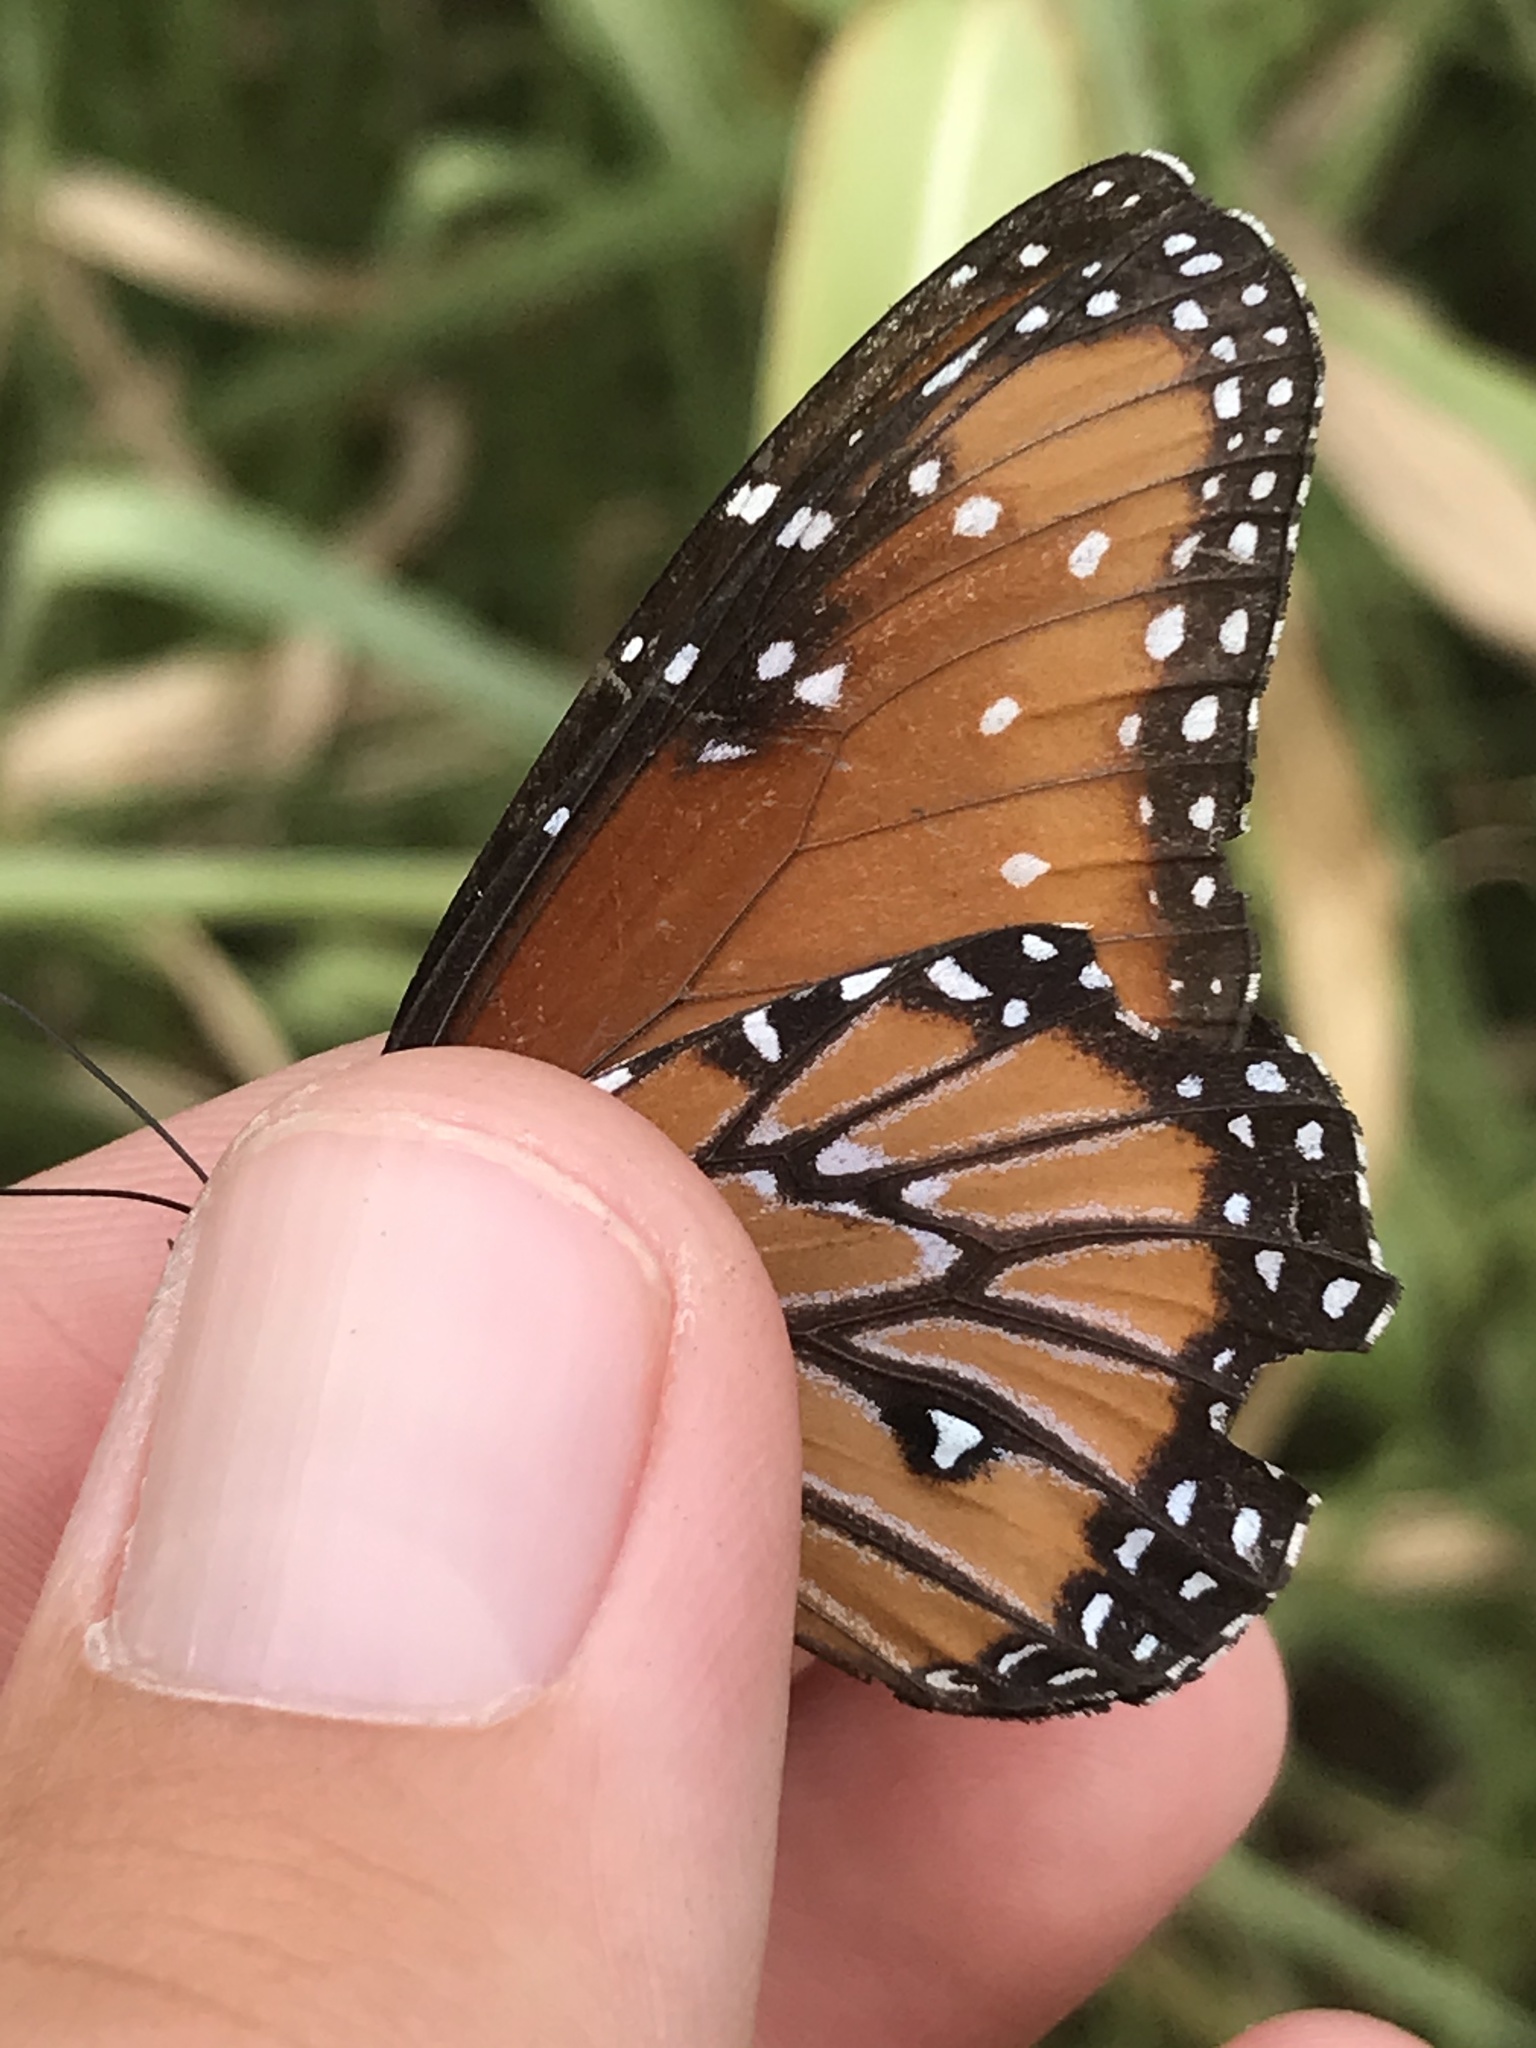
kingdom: Animalia
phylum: Arthropoda
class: Insecta
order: Lepidoptera
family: Nymphalidae
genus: Danaus
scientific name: Danaus gilippus
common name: Queen
